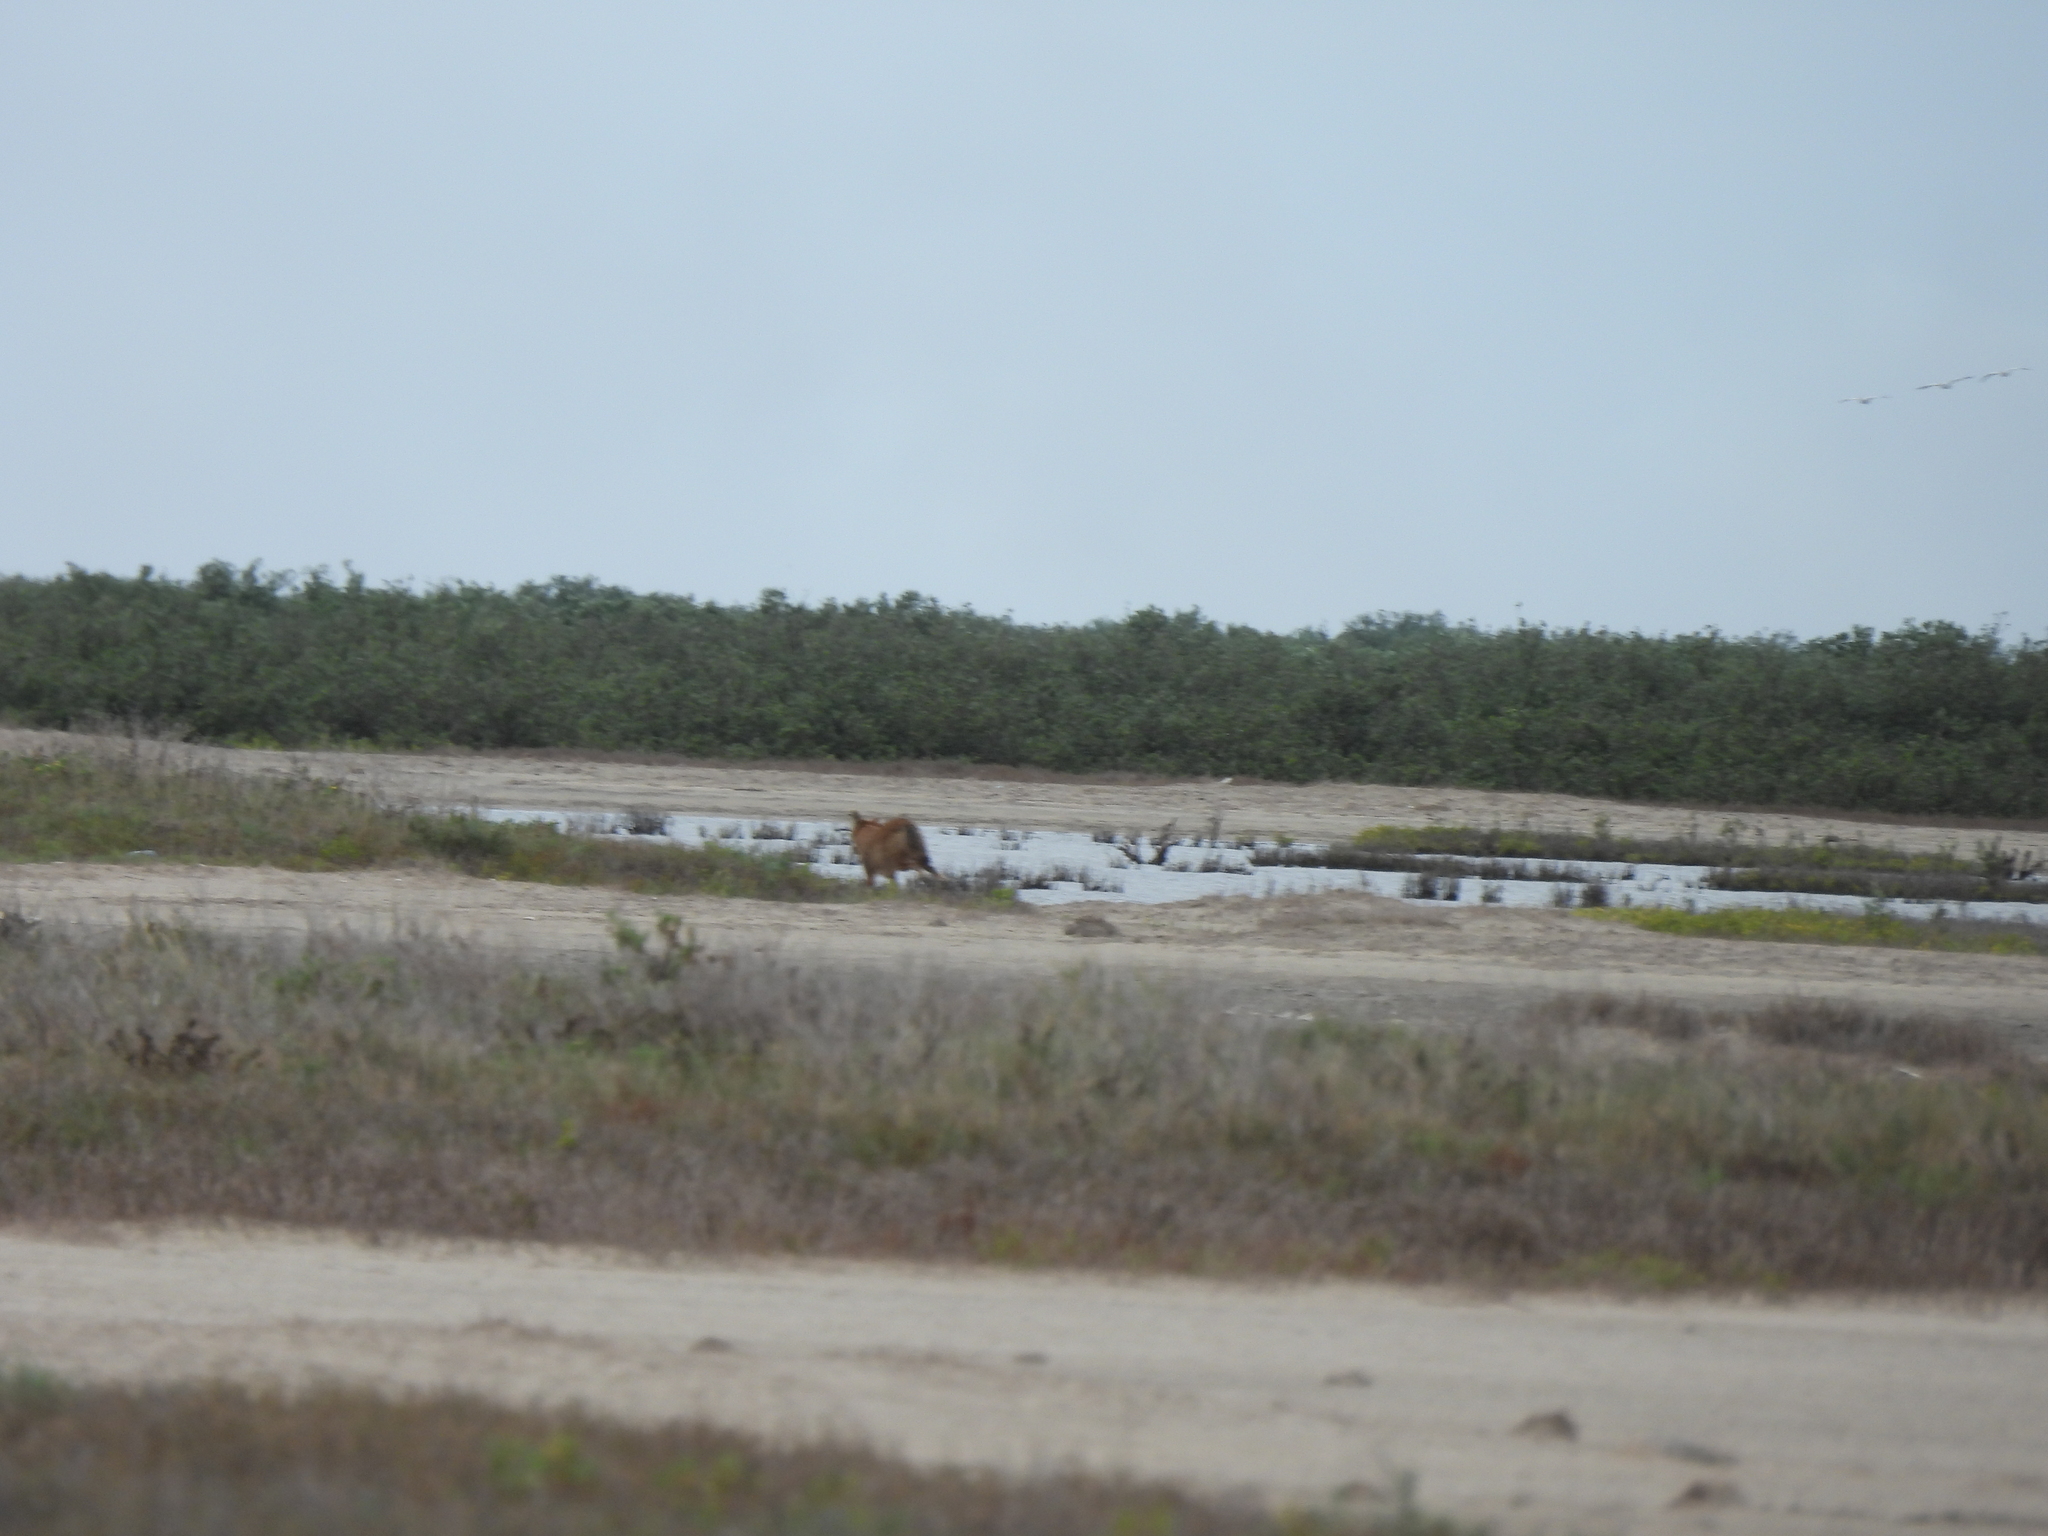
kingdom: Animalia
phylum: Chordata
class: Mammalia
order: Carnivora
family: Canidae
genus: Canis
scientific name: Canis latrans
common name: Coyote
